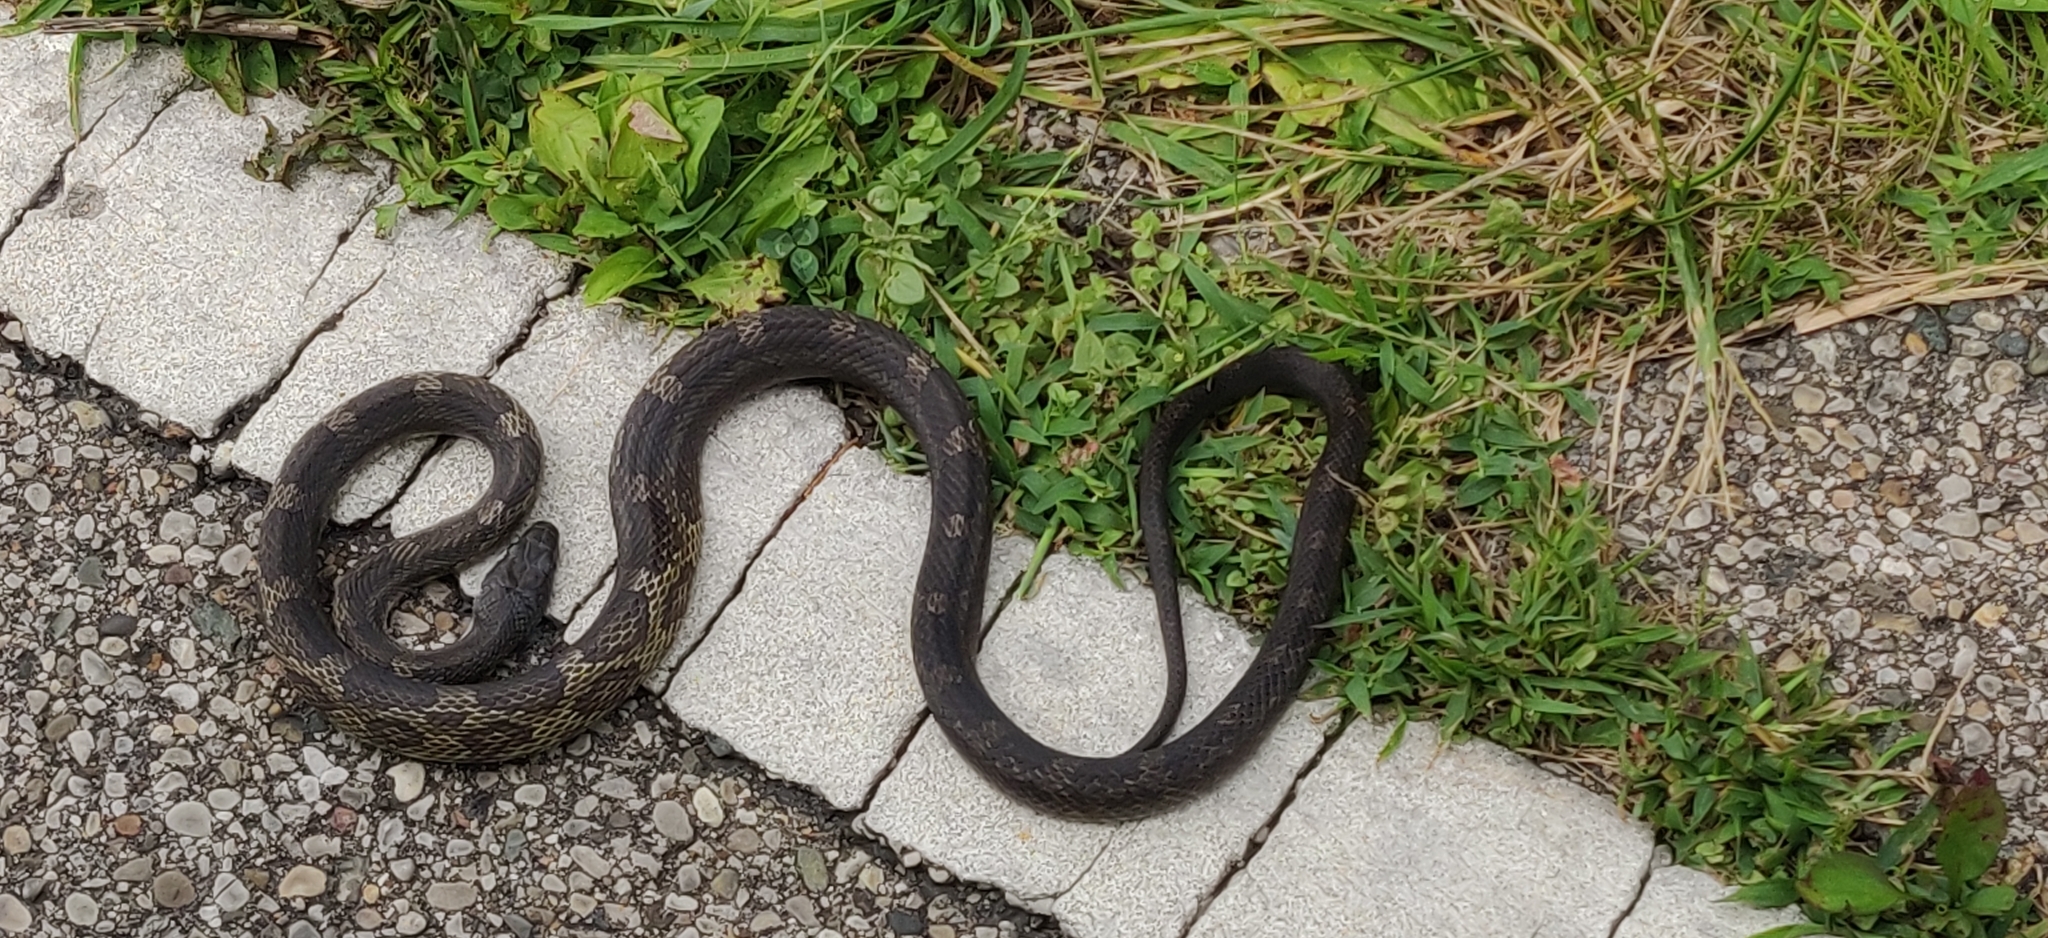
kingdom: Animalia
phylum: Chordata
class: Squamata
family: Colubridae
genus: Pantherophis
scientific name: Pantherophis spiloides
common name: Gray rat snake
